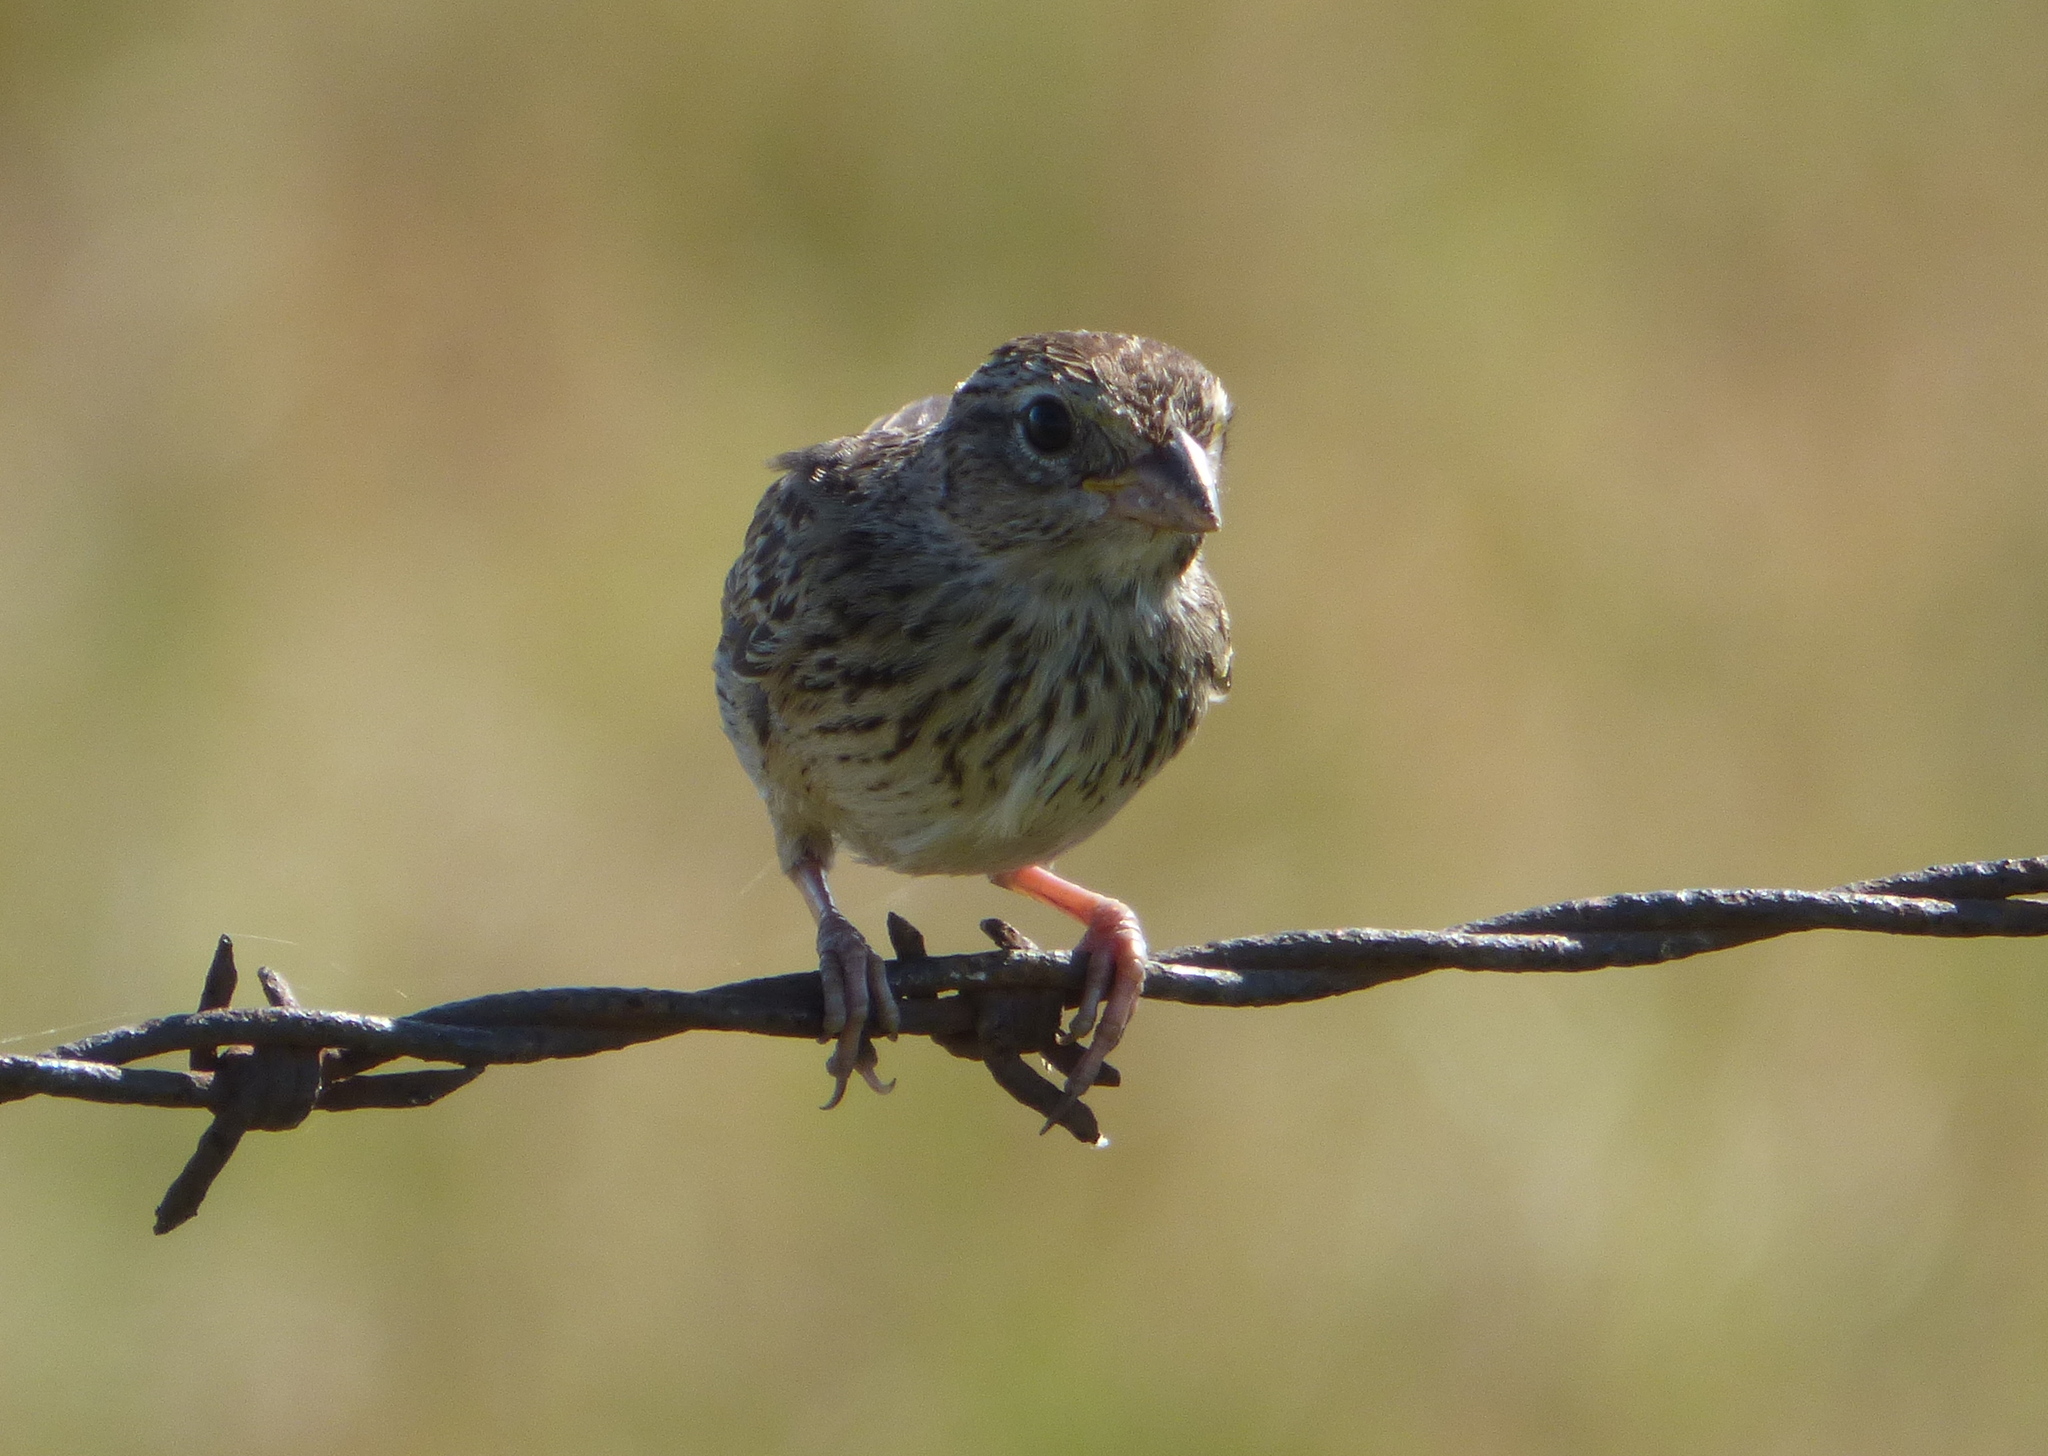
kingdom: Animalia
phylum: Chordata
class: Aves
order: Passeriformes
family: Passerellidae
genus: Ammodramus
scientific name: Ammodramus humeralis
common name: Grassland sparrow
